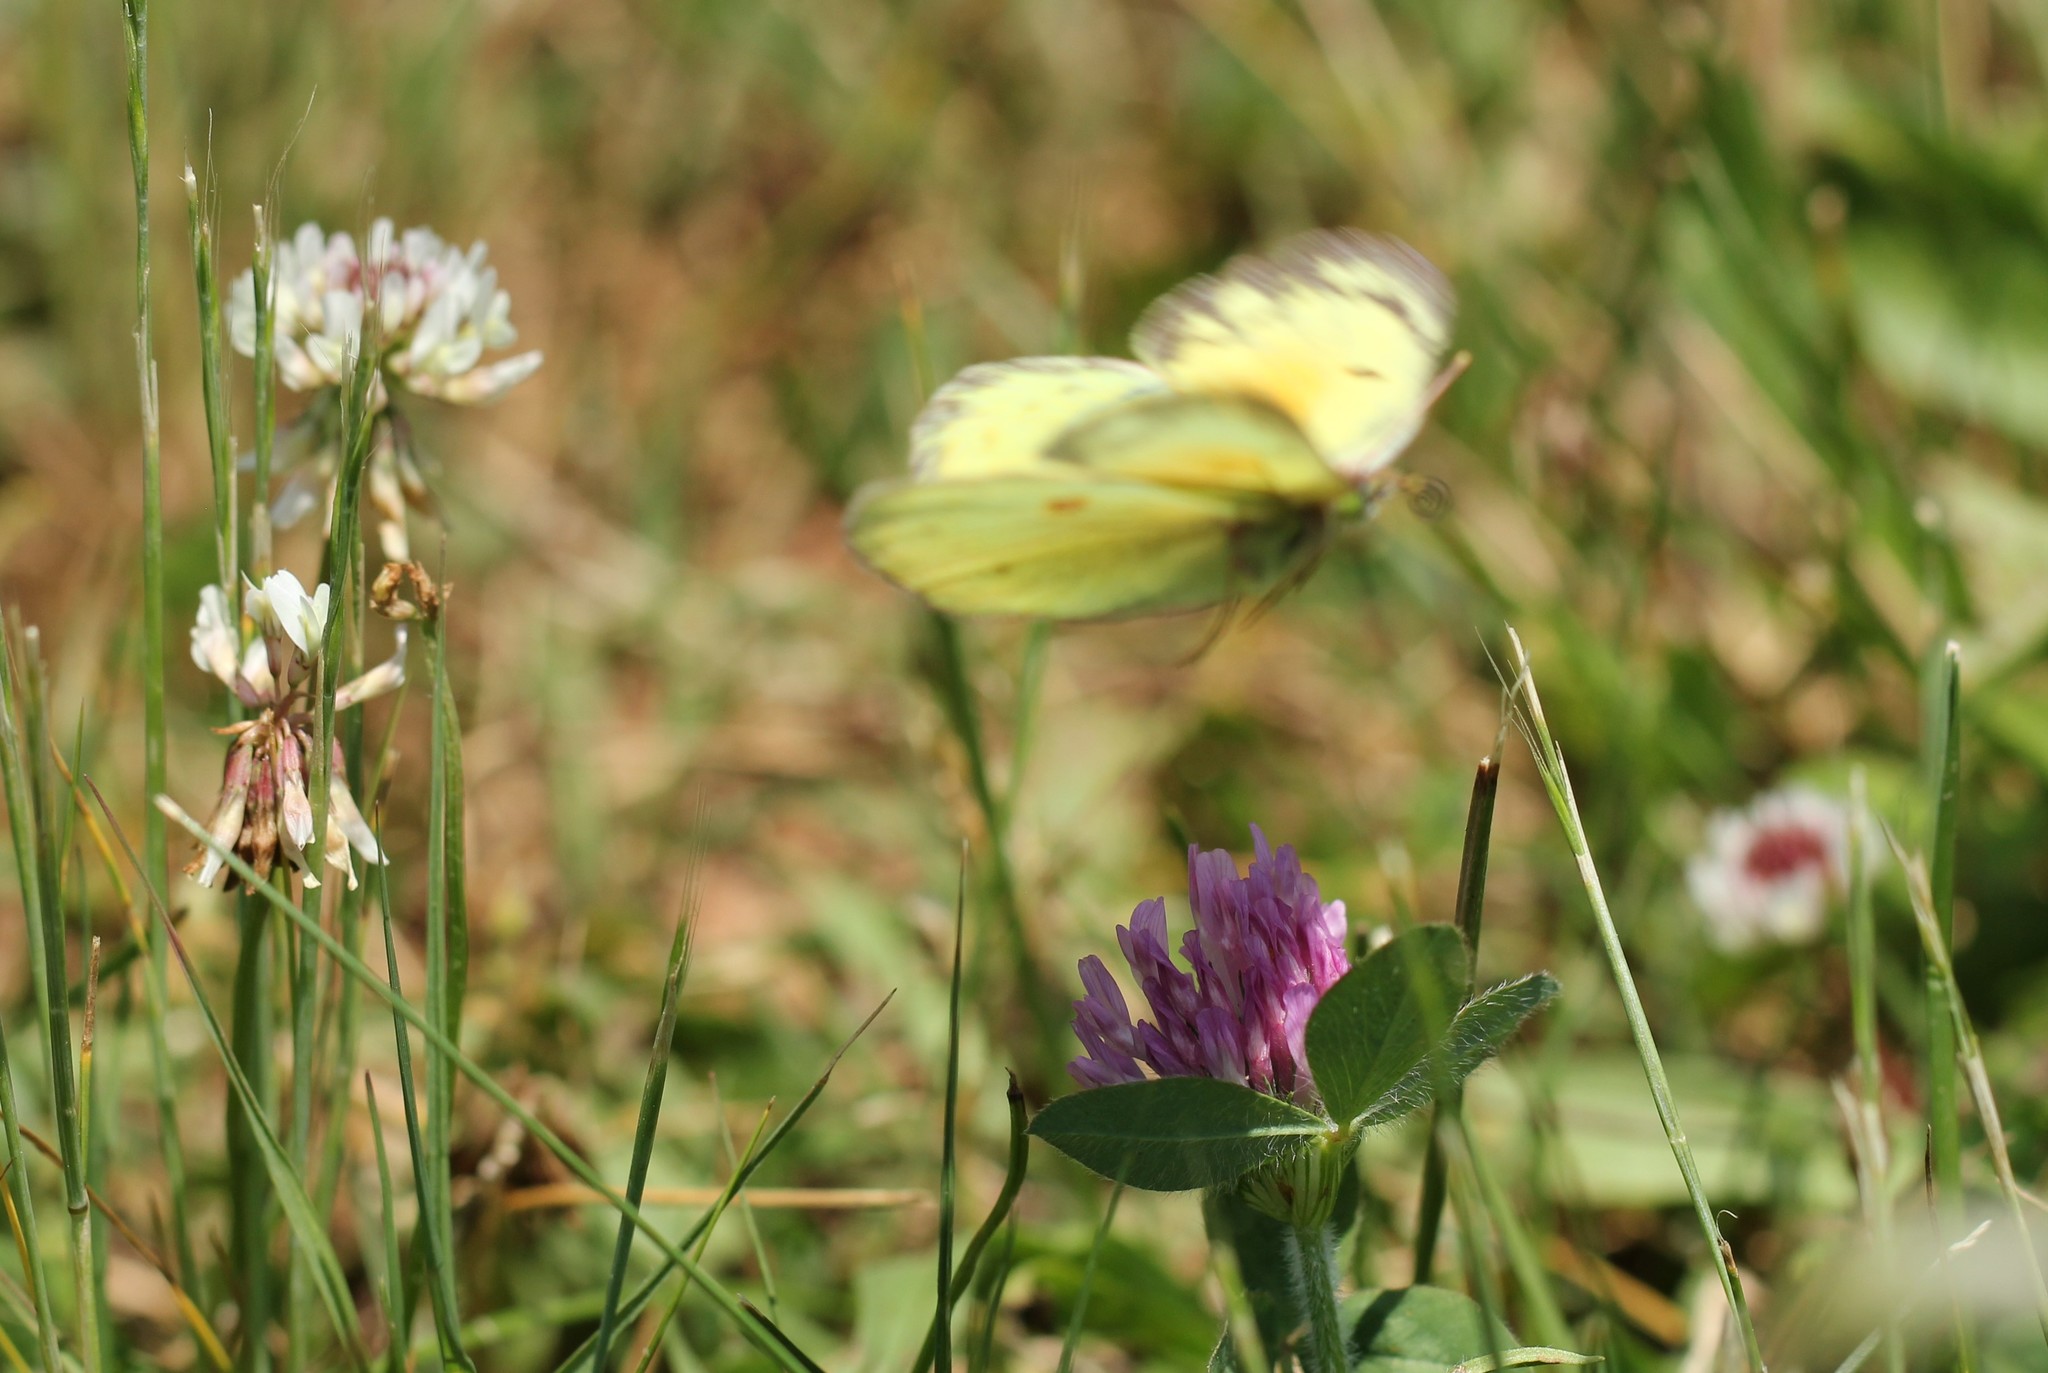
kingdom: Animalia
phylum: Arthropoda
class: Insecta
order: Lepidoptera
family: Pieridae
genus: Colias
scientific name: Colias eurytheme
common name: Alfalfa butterfly
